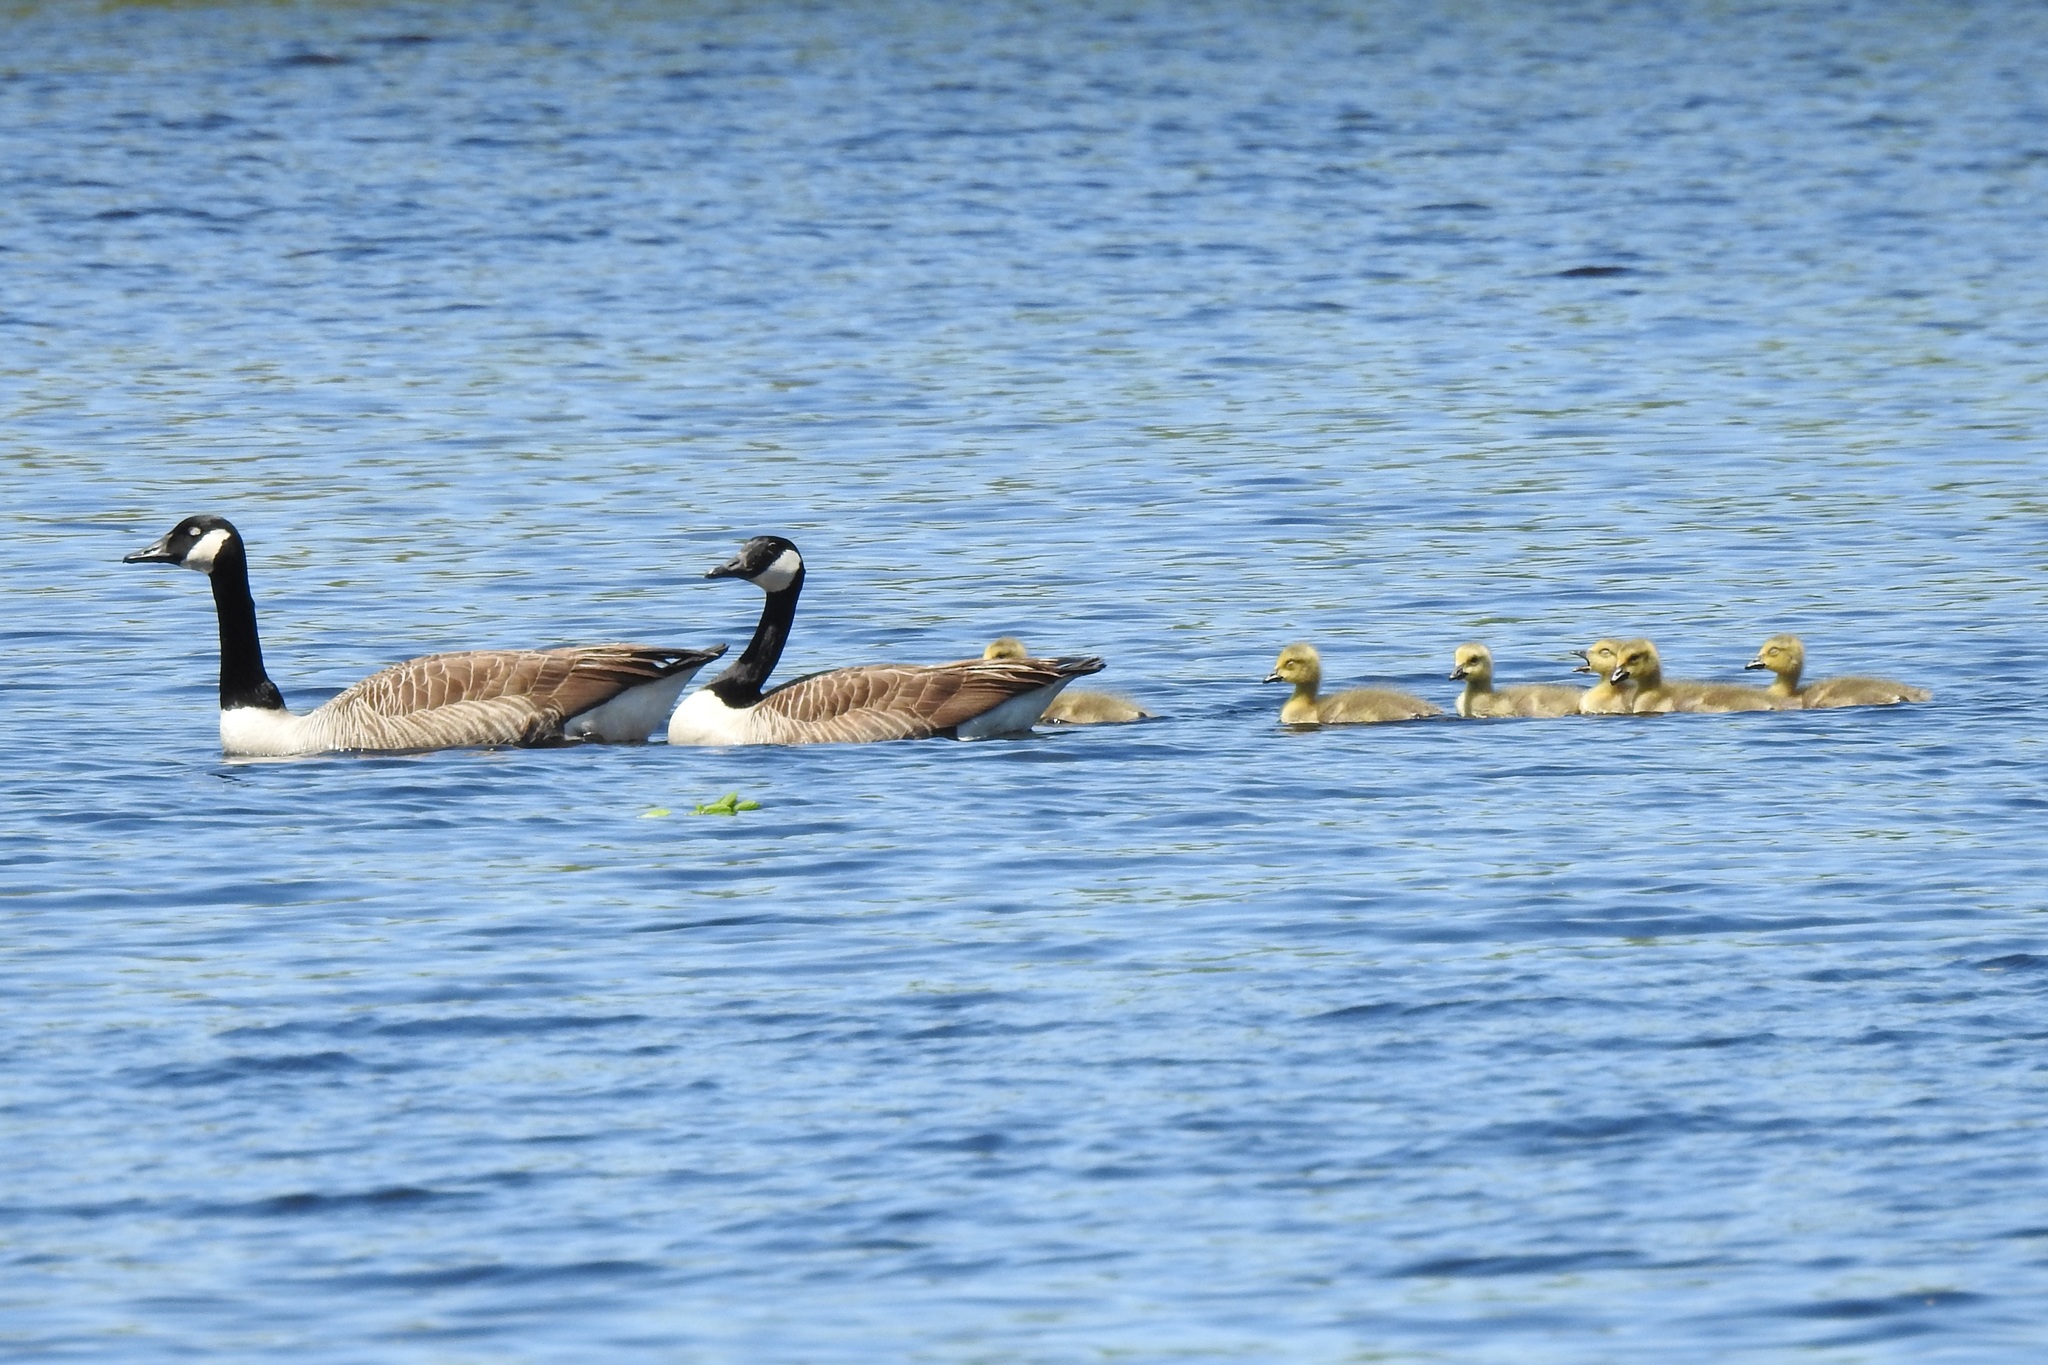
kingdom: Animalia
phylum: Chordata
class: Aves
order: Anseriformes
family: Anatidae
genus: Branta
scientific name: Branta canadensis
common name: Canada goose
